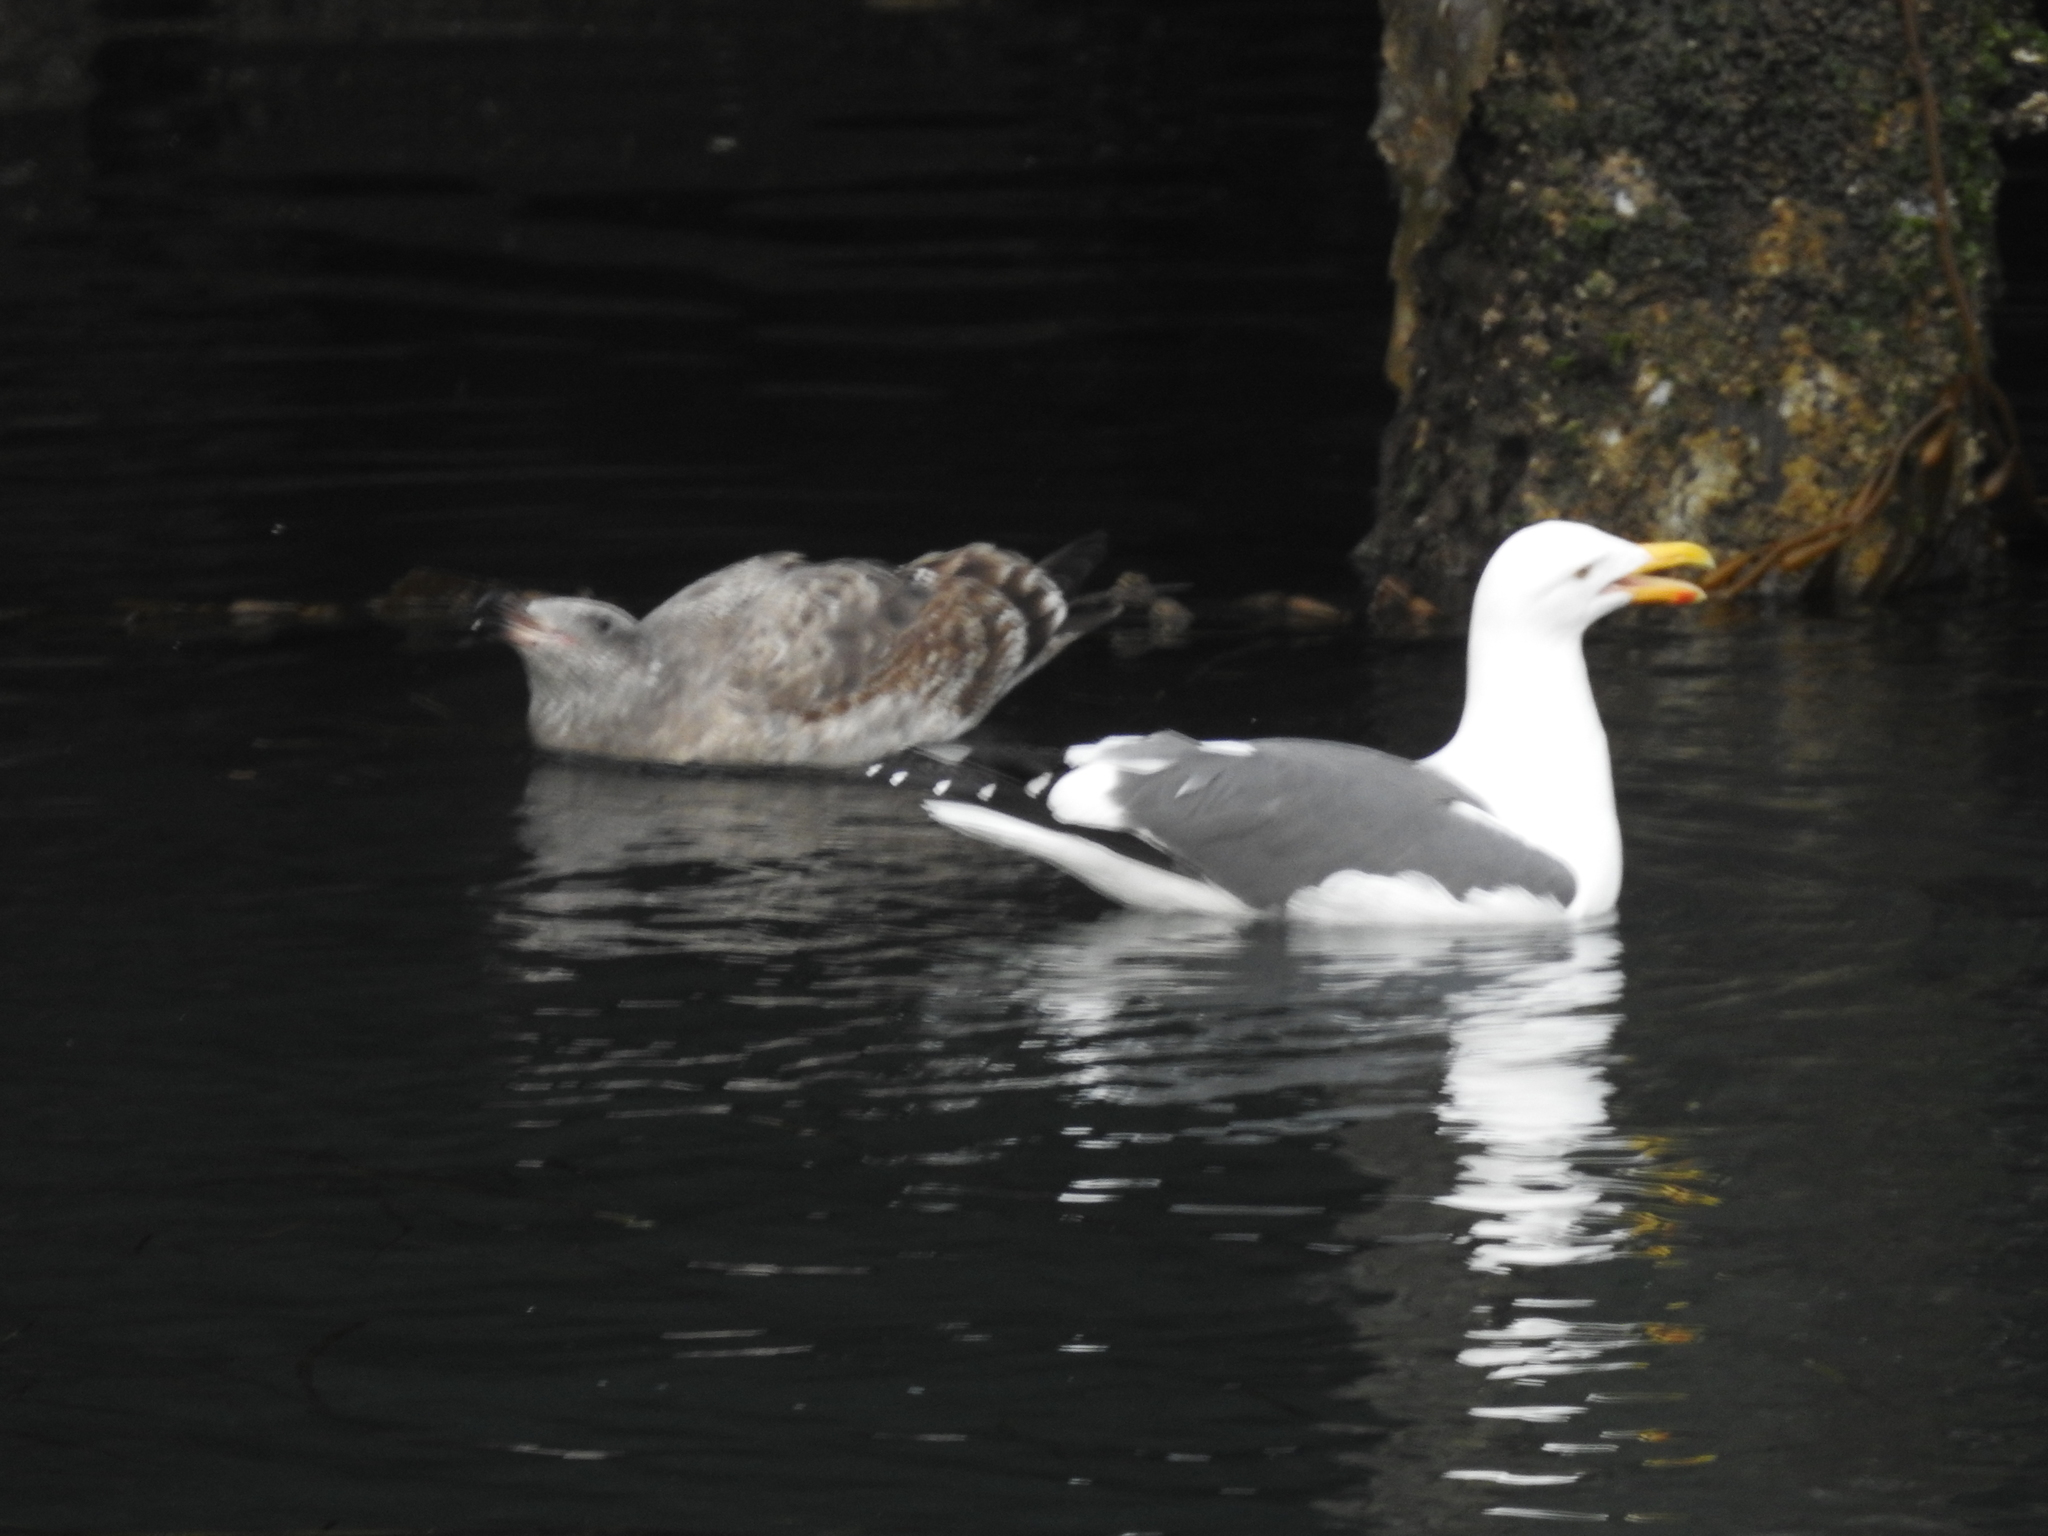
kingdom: Animalia
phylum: Chordata
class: Aves
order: Charadriiformes
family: Laridae
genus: Larus
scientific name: Larus occidentalis
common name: Western gull
